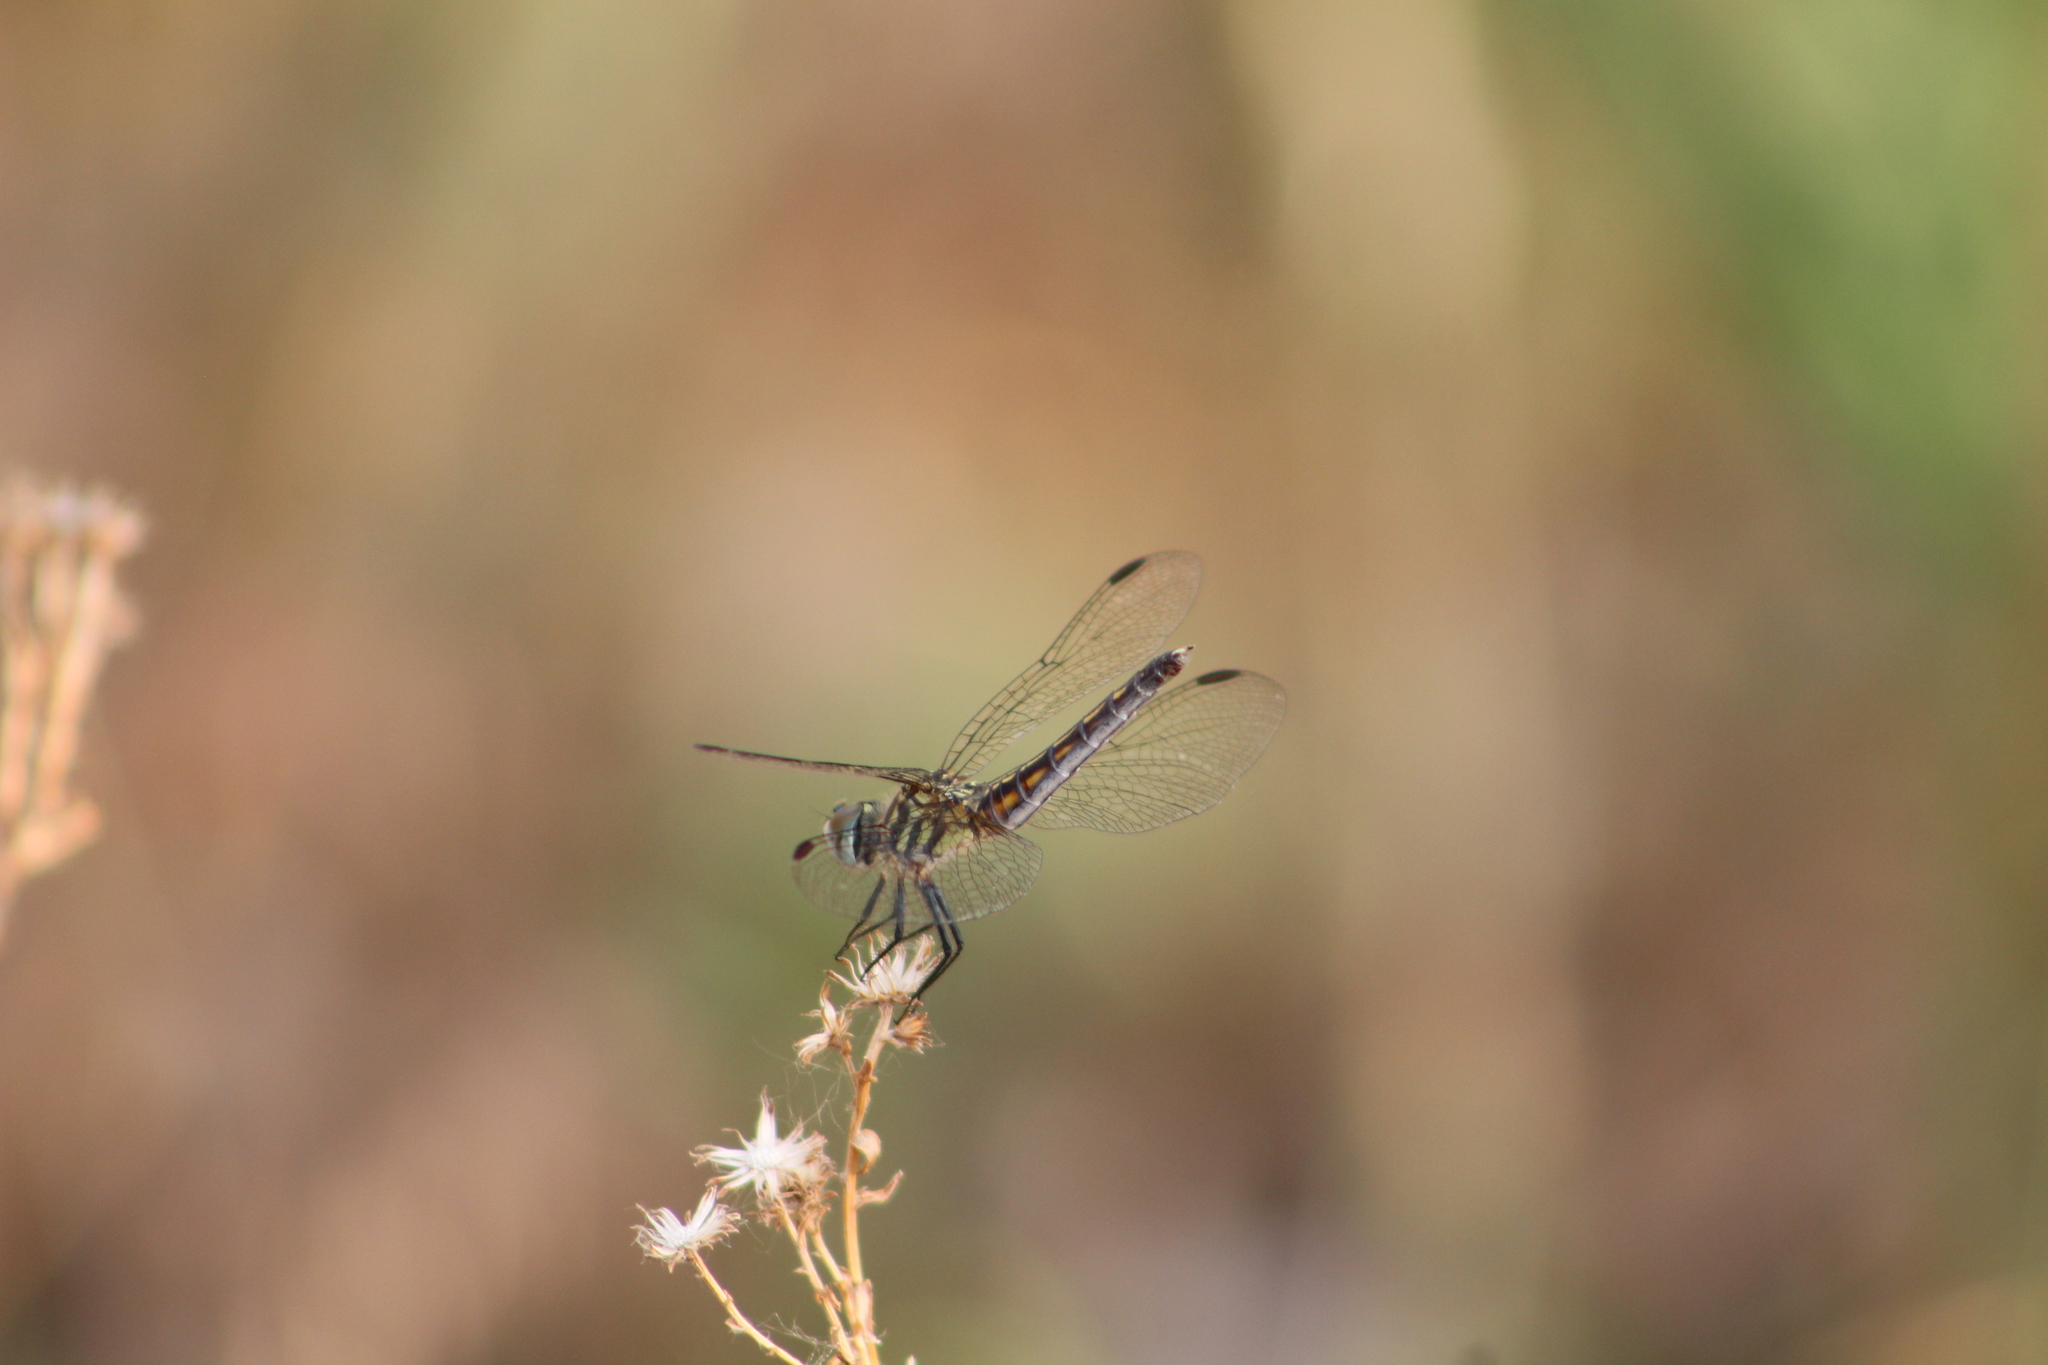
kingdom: Animalia
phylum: Arthropoda
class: Insecta
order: Odonata
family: Libellulidae
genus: Pachydiplax
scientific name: Pachydiplax longipennis
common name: Blue dasher
